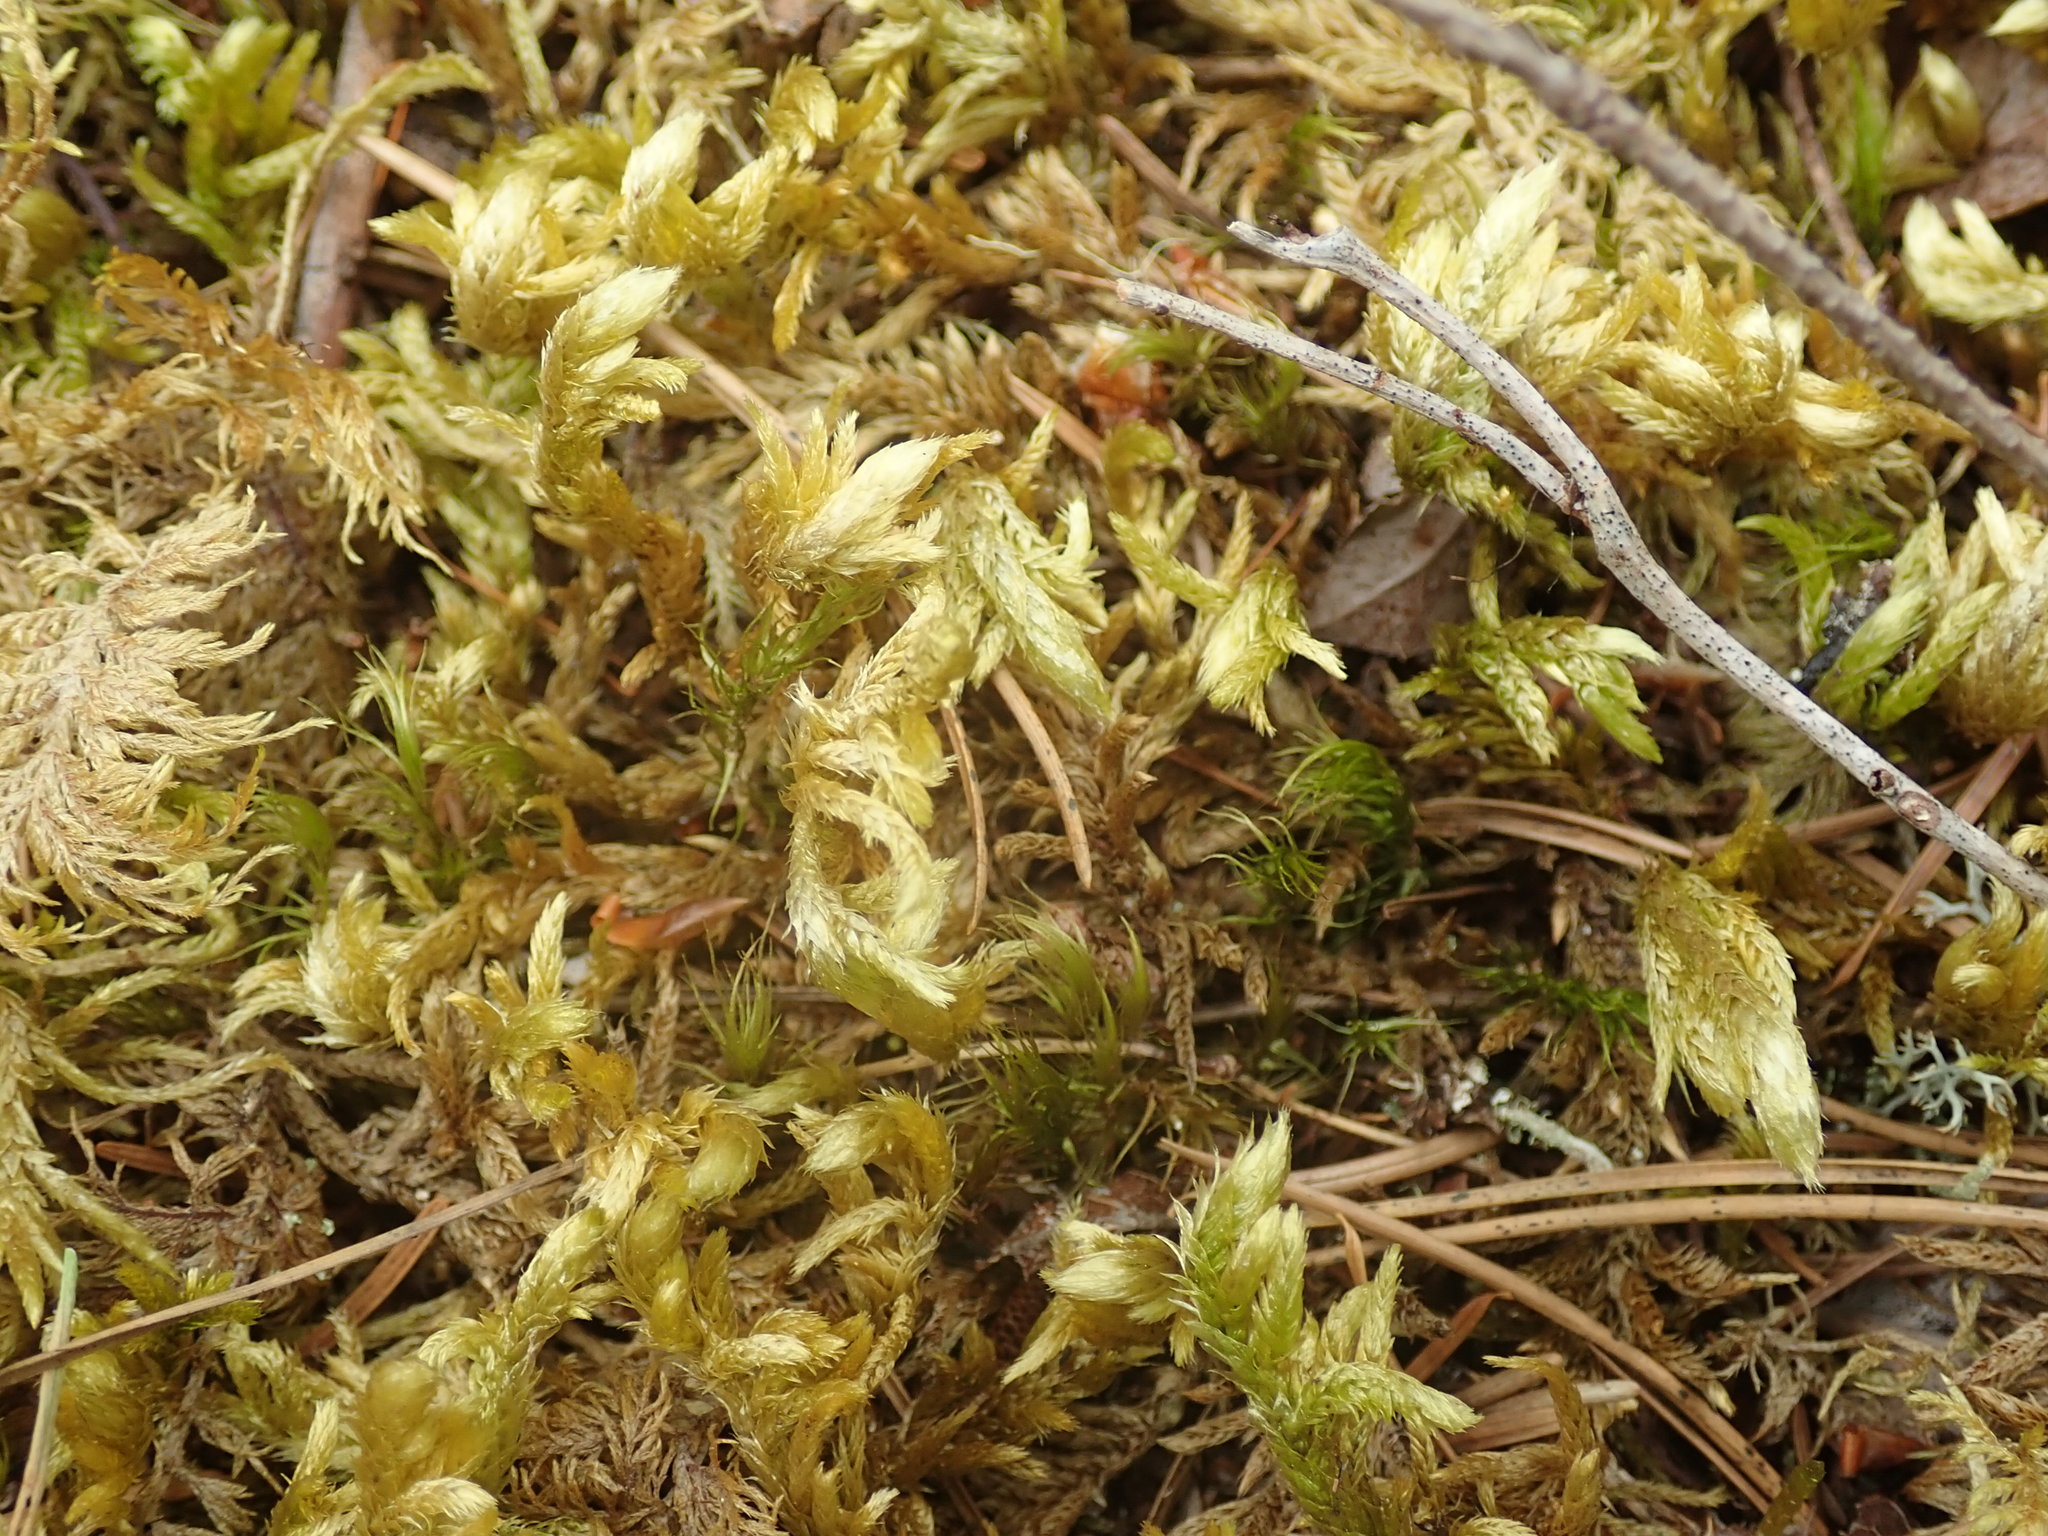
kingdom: Plantae
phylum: Bryophyta
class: Bryopsida
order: Hypnales
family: Brachytheciaceae
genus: Homalothecium
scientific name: Homalothecium megaptilum
